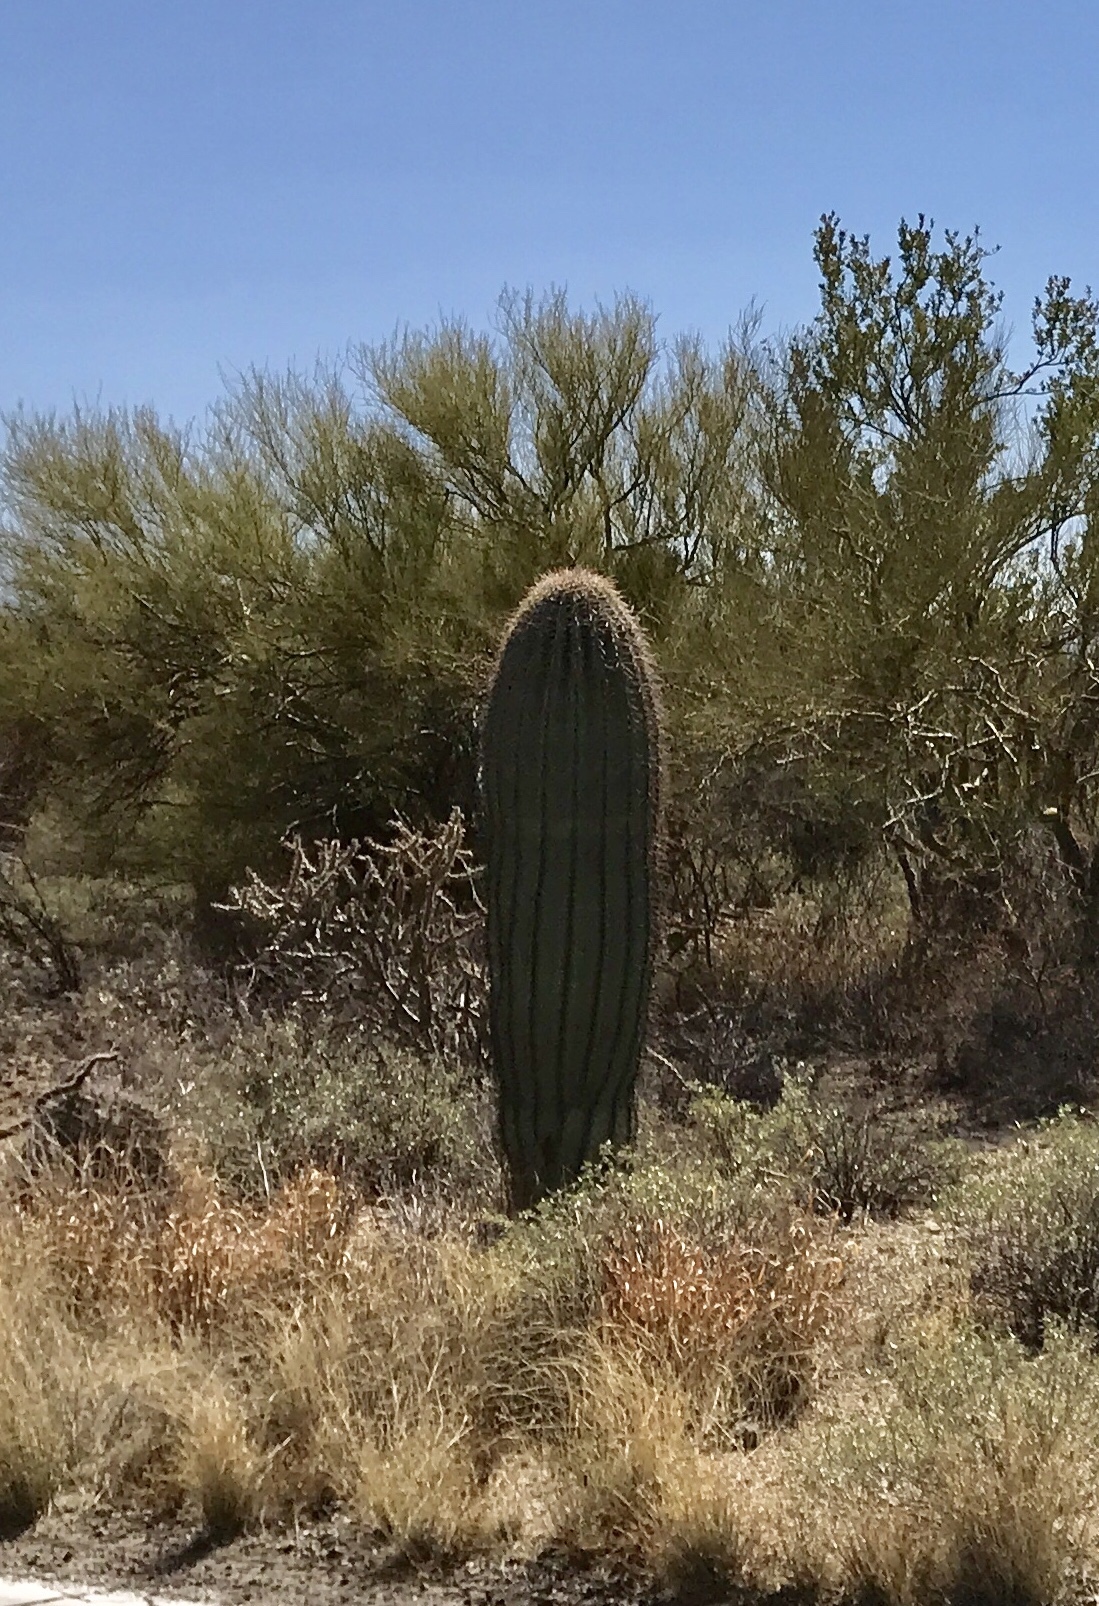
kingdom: Plantae
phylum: Tracheophyta
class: Magnoliopsida
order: Caryophyllales
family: Cactaceae
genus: Carnegiea
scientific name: Carnegiea gigantea
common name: Saguaro
